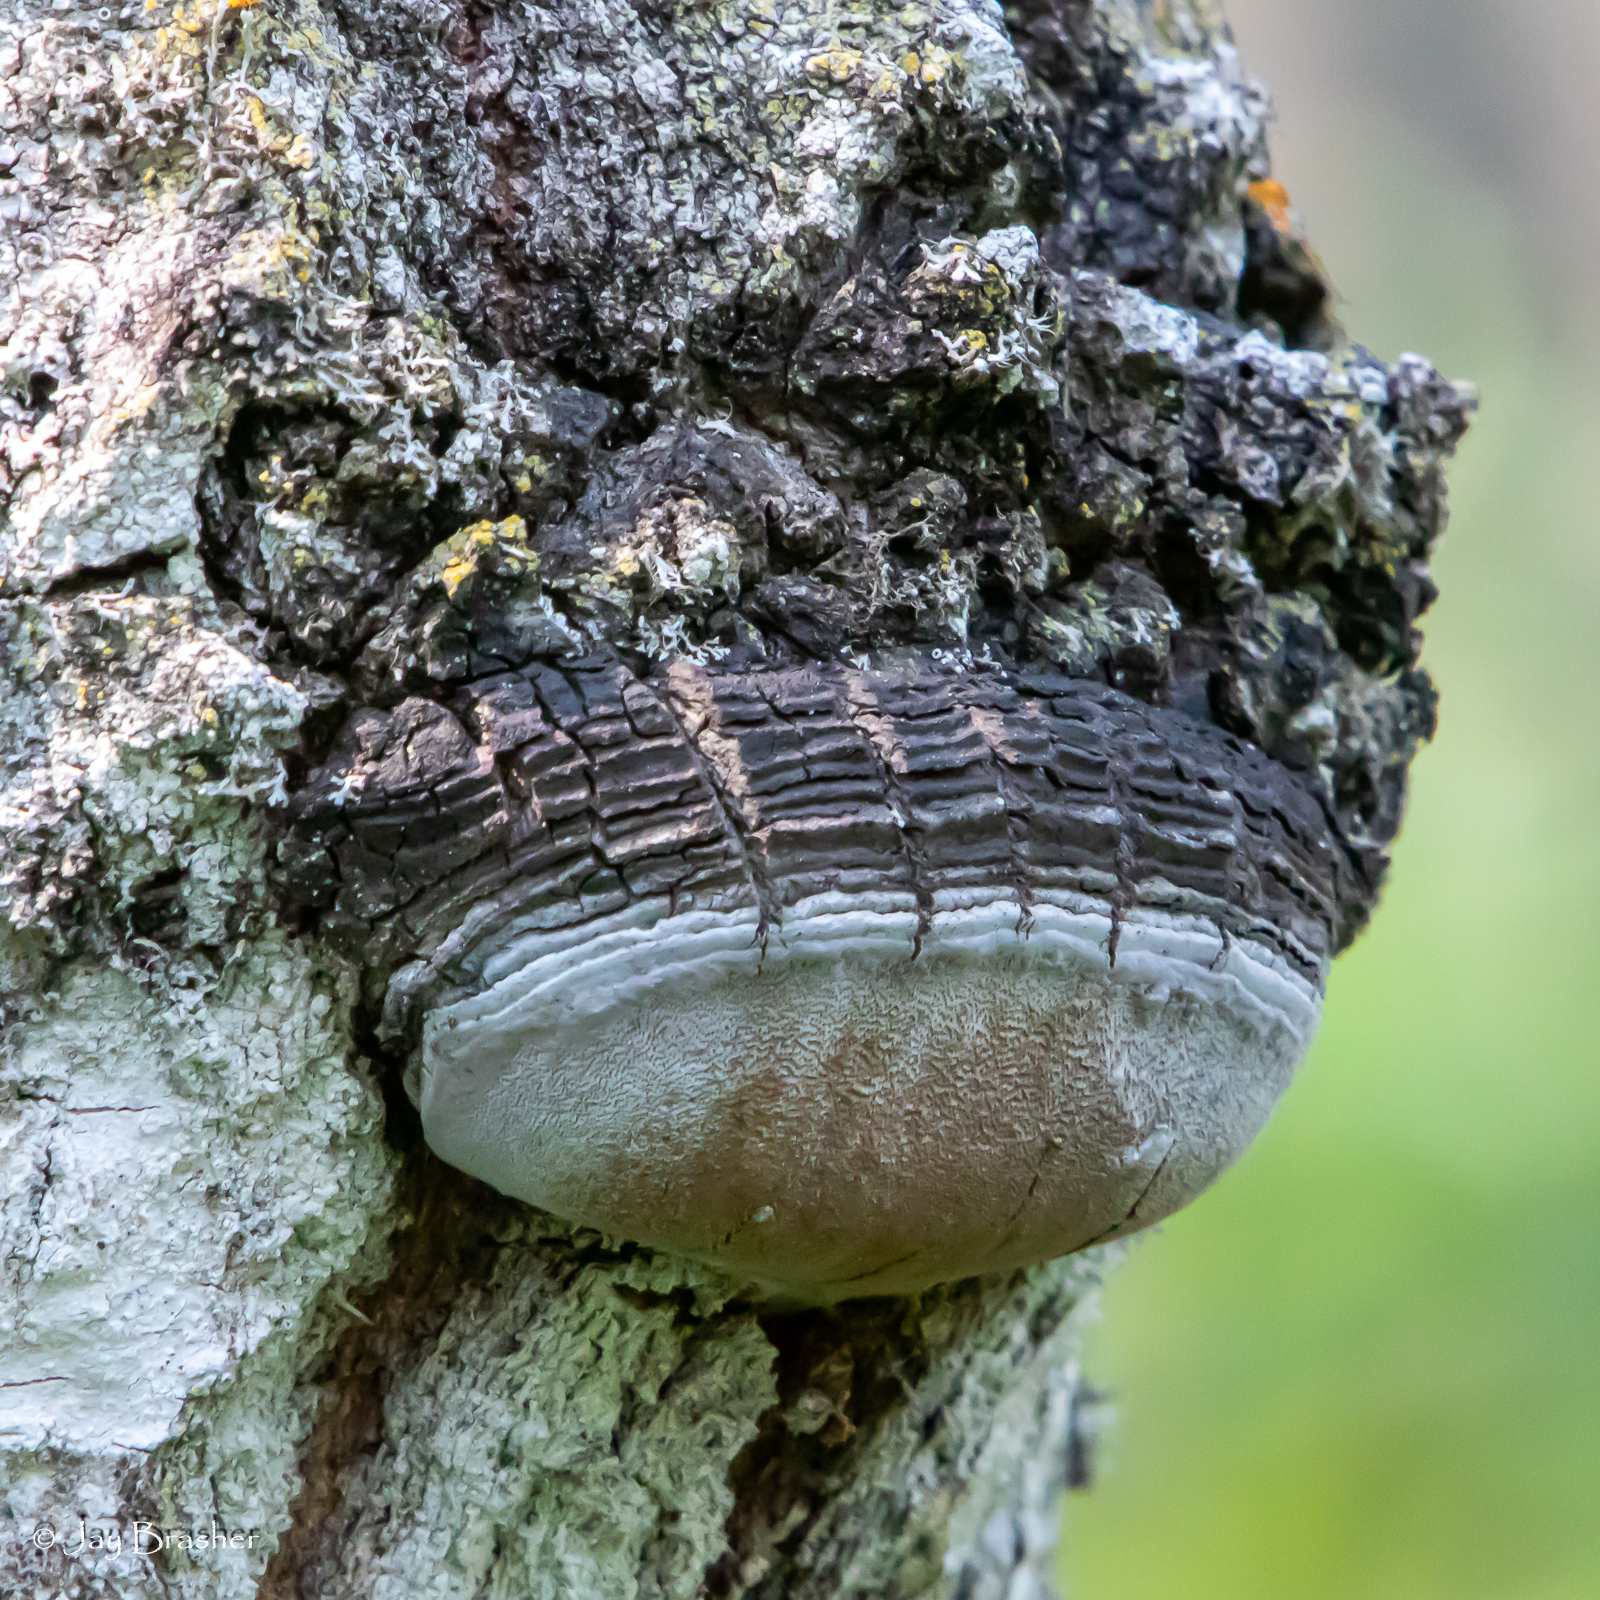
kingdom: Fungi
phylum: Basidiomycota
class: Agaricomycetes
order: Hymenochaetales
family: Hymenochaetaceae
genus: Phellinus
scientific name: Phellinus tremulae
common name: Aspen bracket
